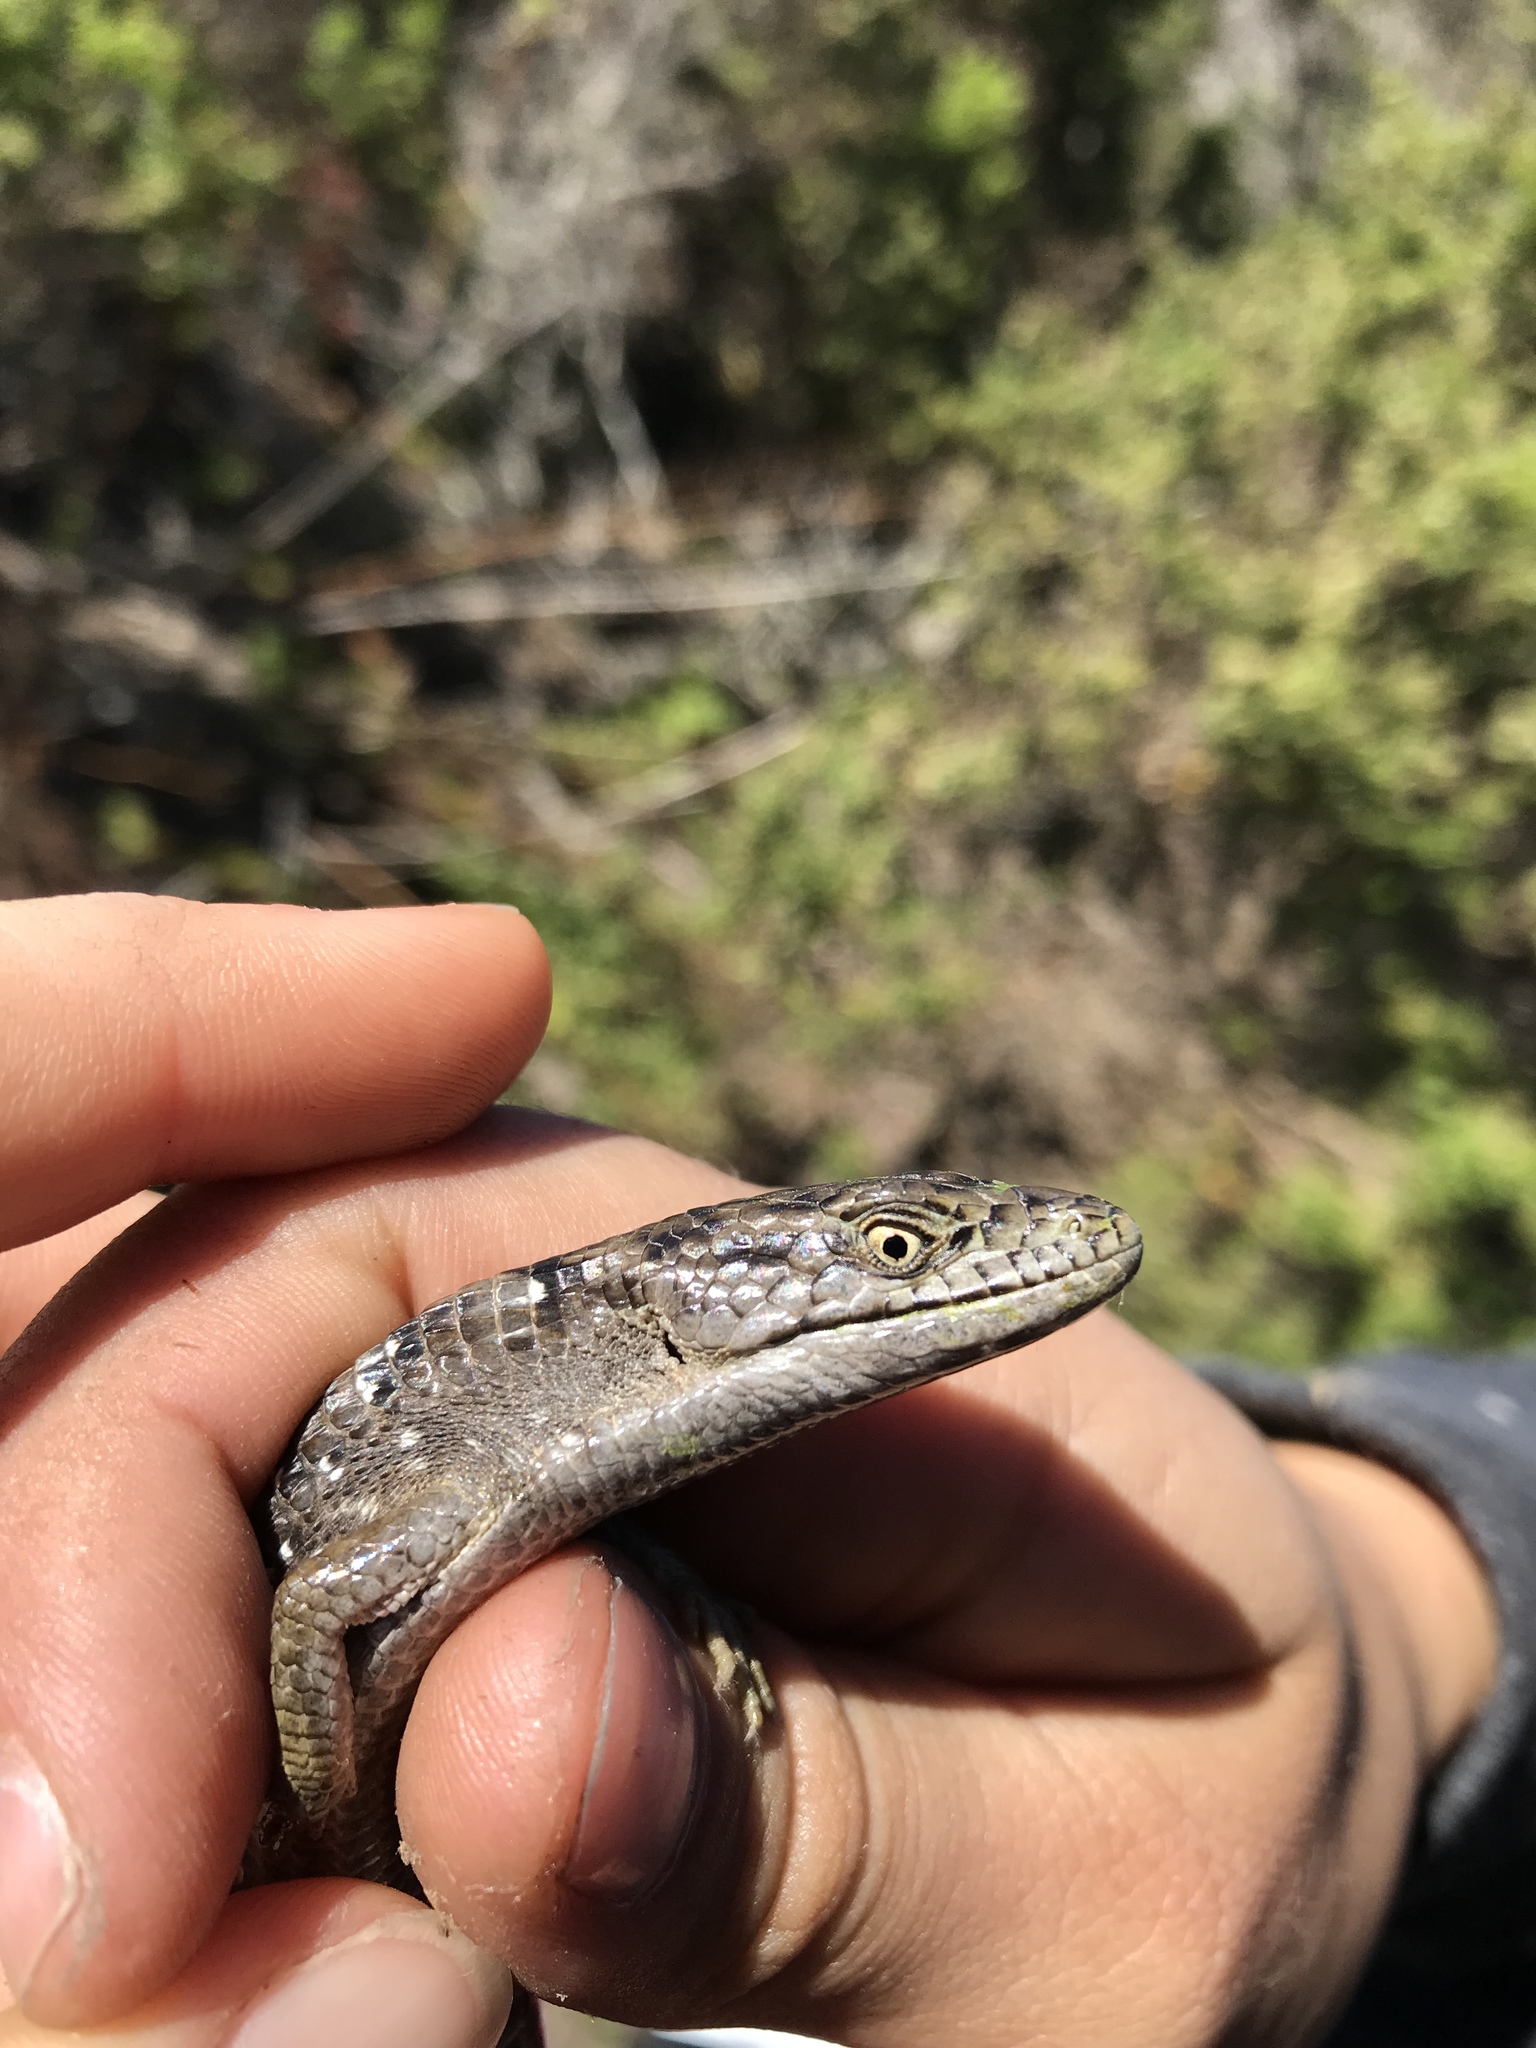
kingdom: Animalia
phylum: Chordata
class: Squamata
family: Anguidae
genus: Elgaria
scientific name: Elgaria multicarinata
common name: Southern alligator lizard
